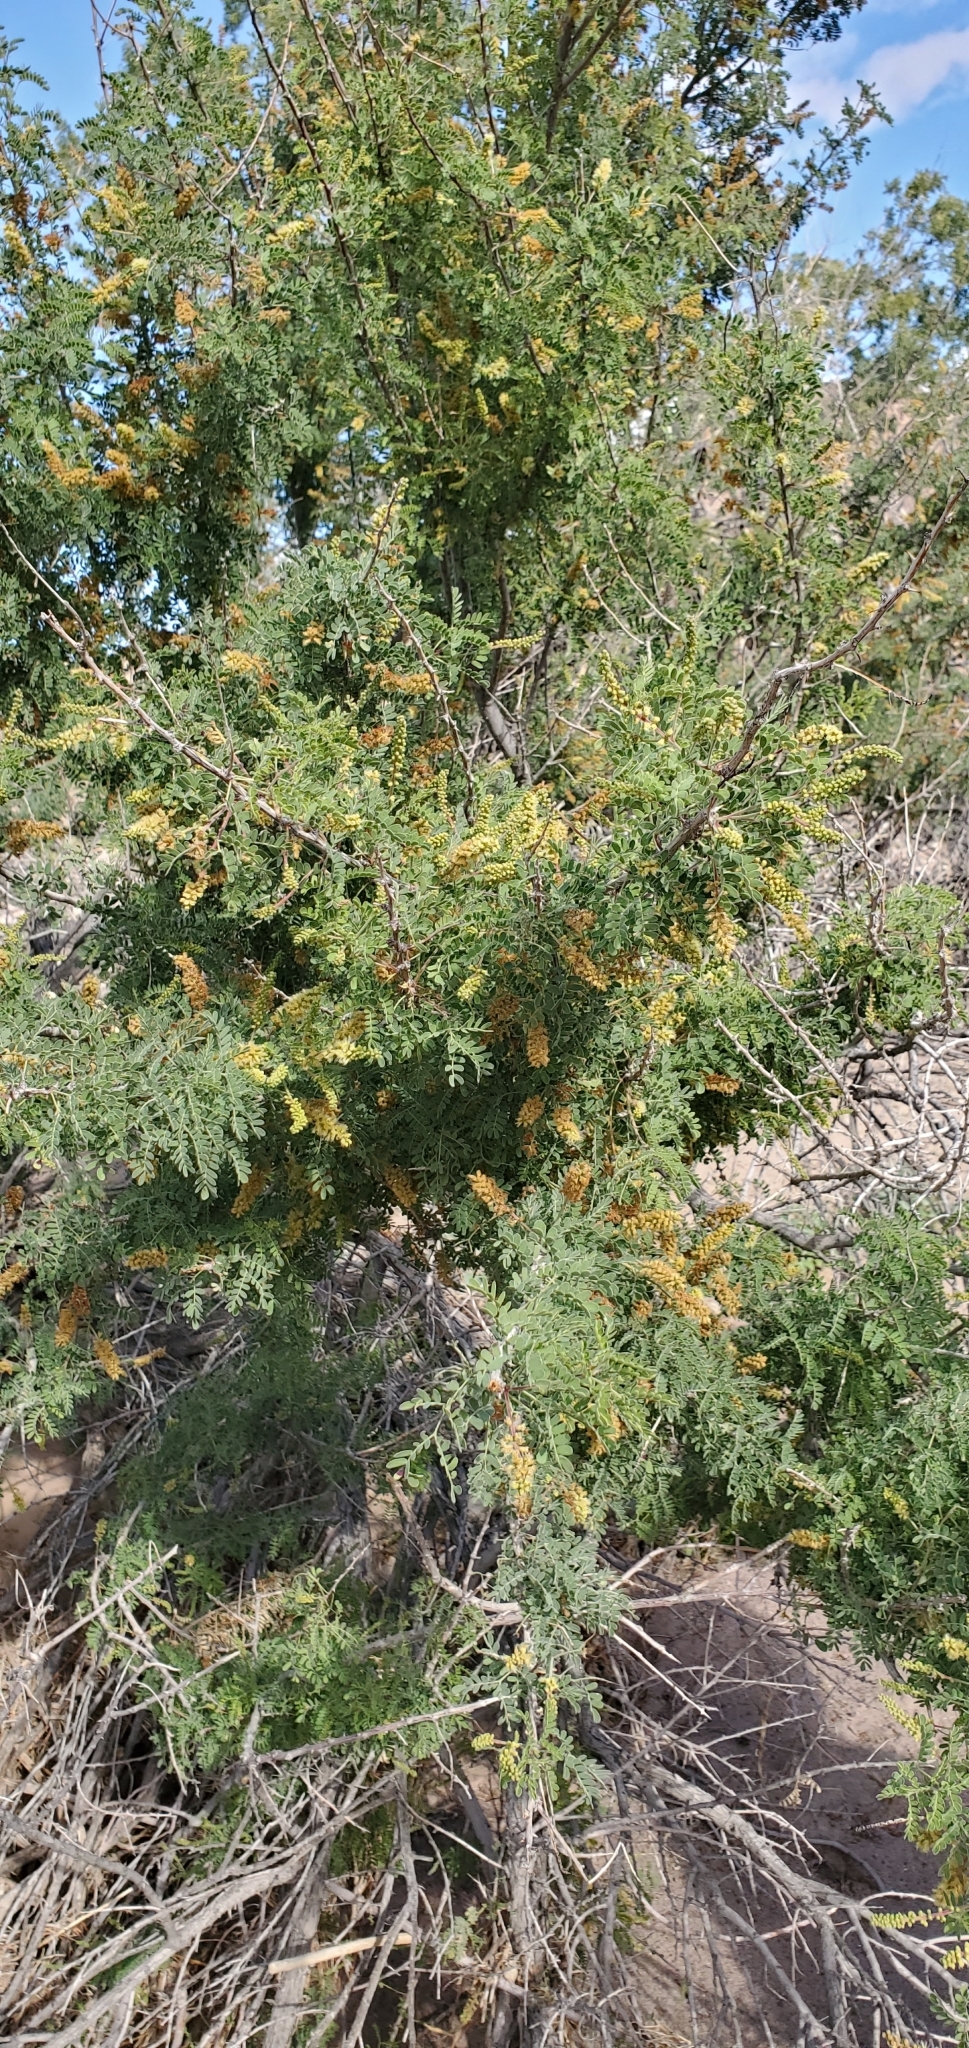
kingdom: Plantae
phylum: Tracheophyta
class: Magnoliopsida
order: Fabales
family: Fabaceae
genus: Senegalia
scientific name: Senegalia greggii
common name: Texas-mimosa
